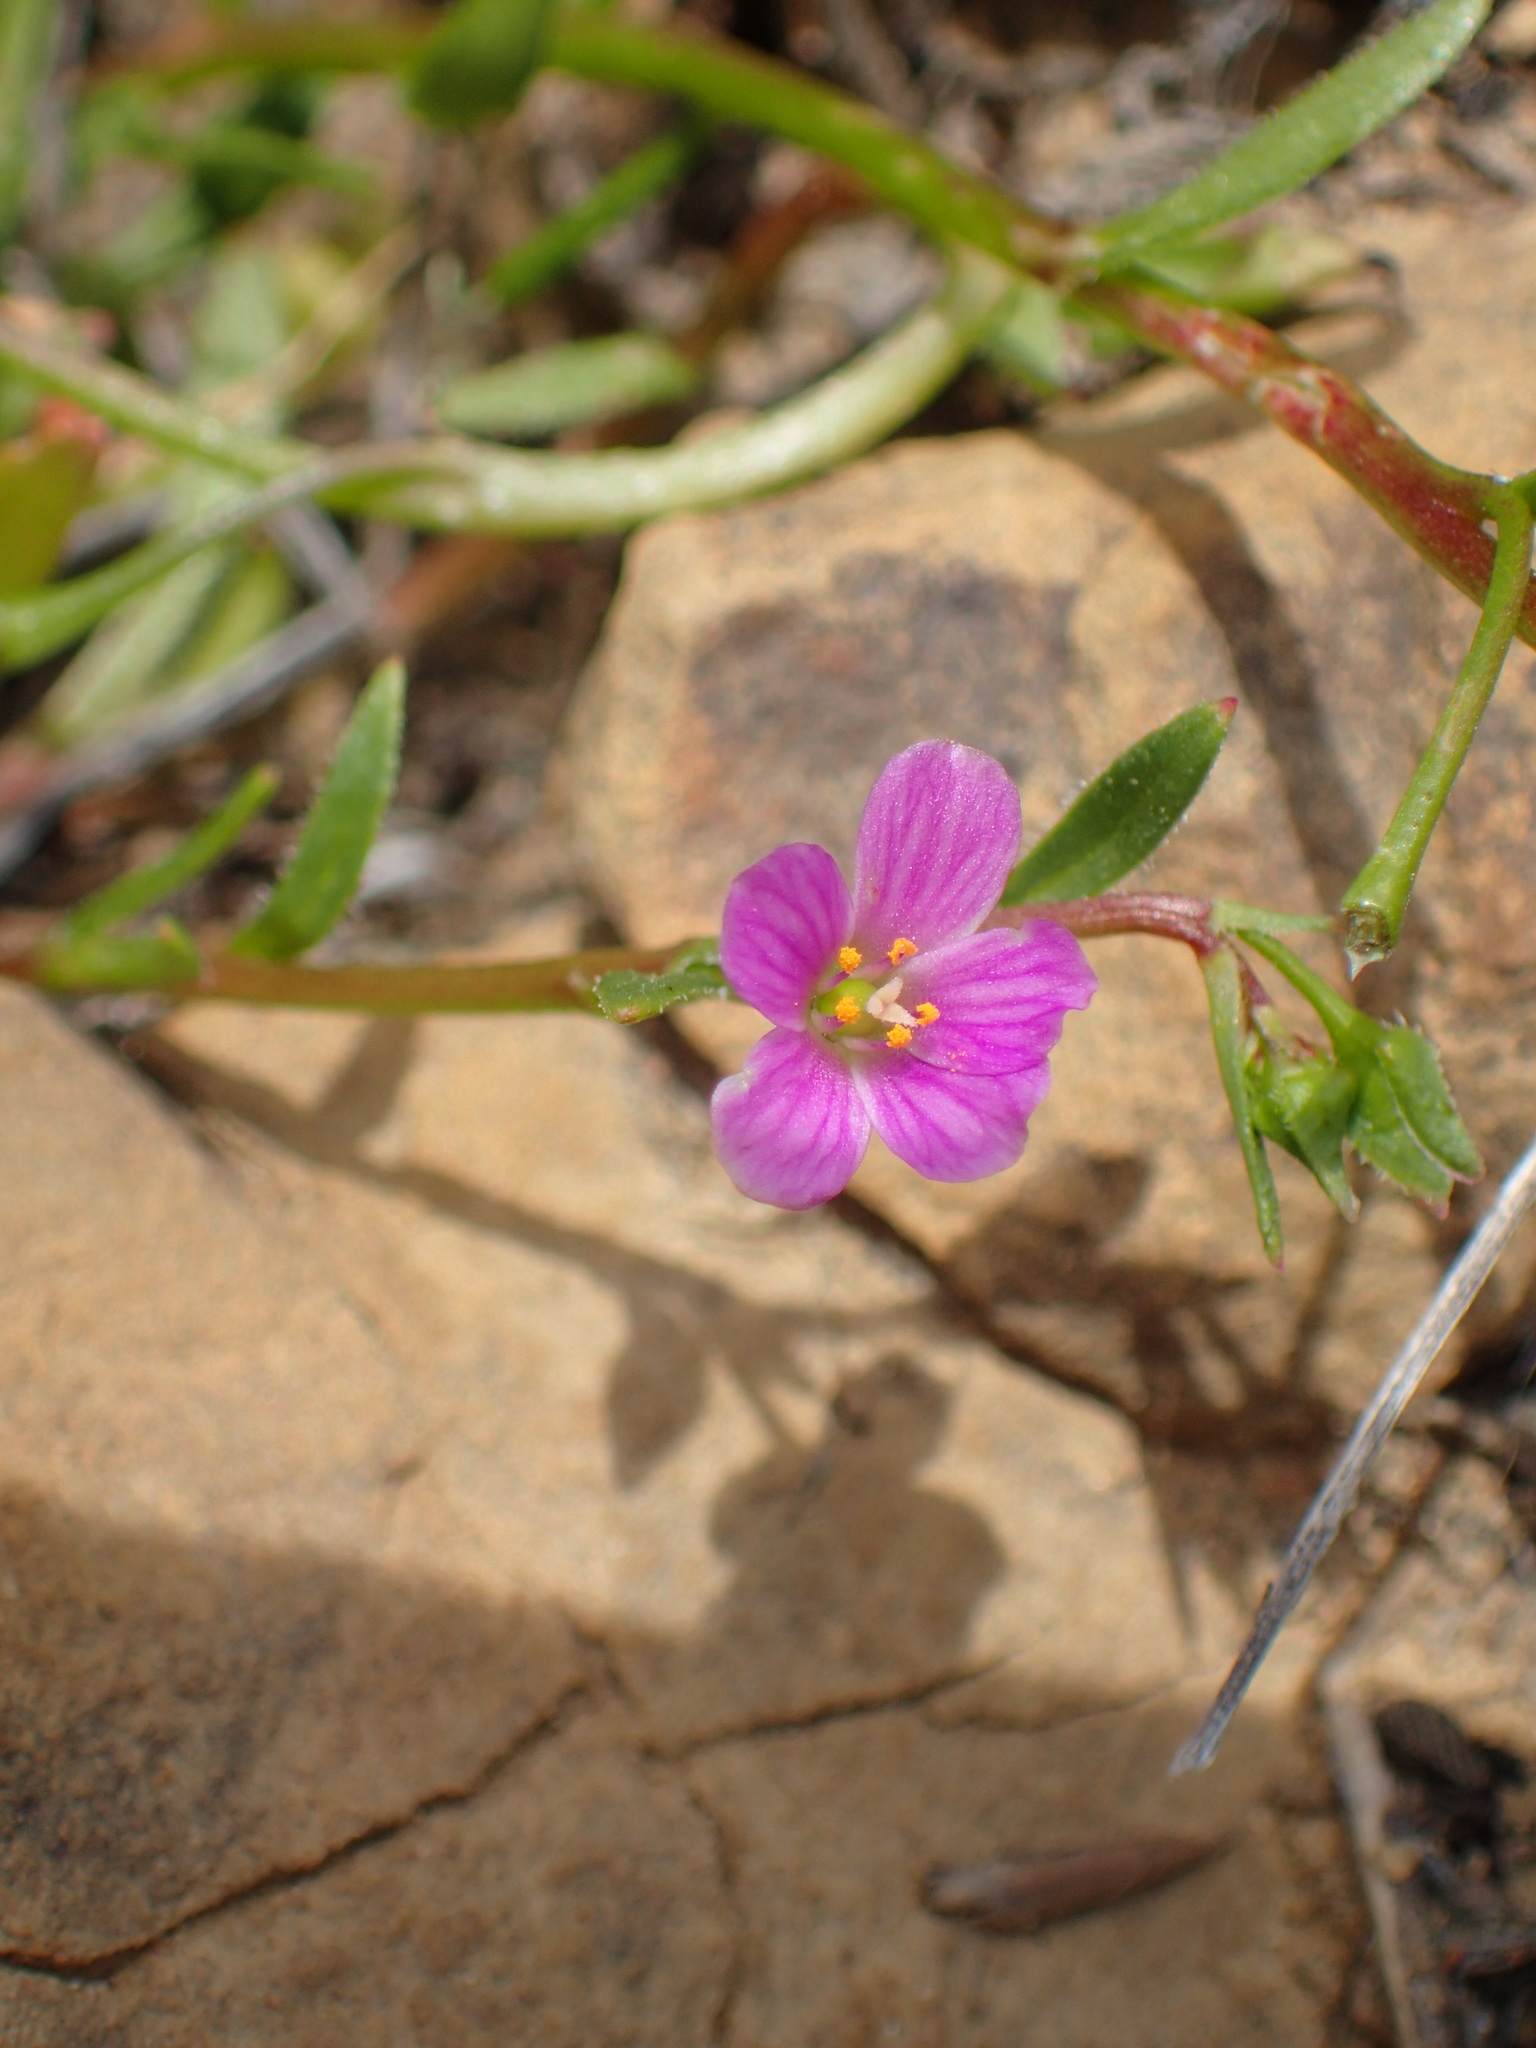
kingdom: Plantae
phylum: Tracheophyta
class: Magnoliopsida
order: Caryophyllales
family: Montiaceae
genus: Calandrinia
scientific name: Calandrinia breweri
